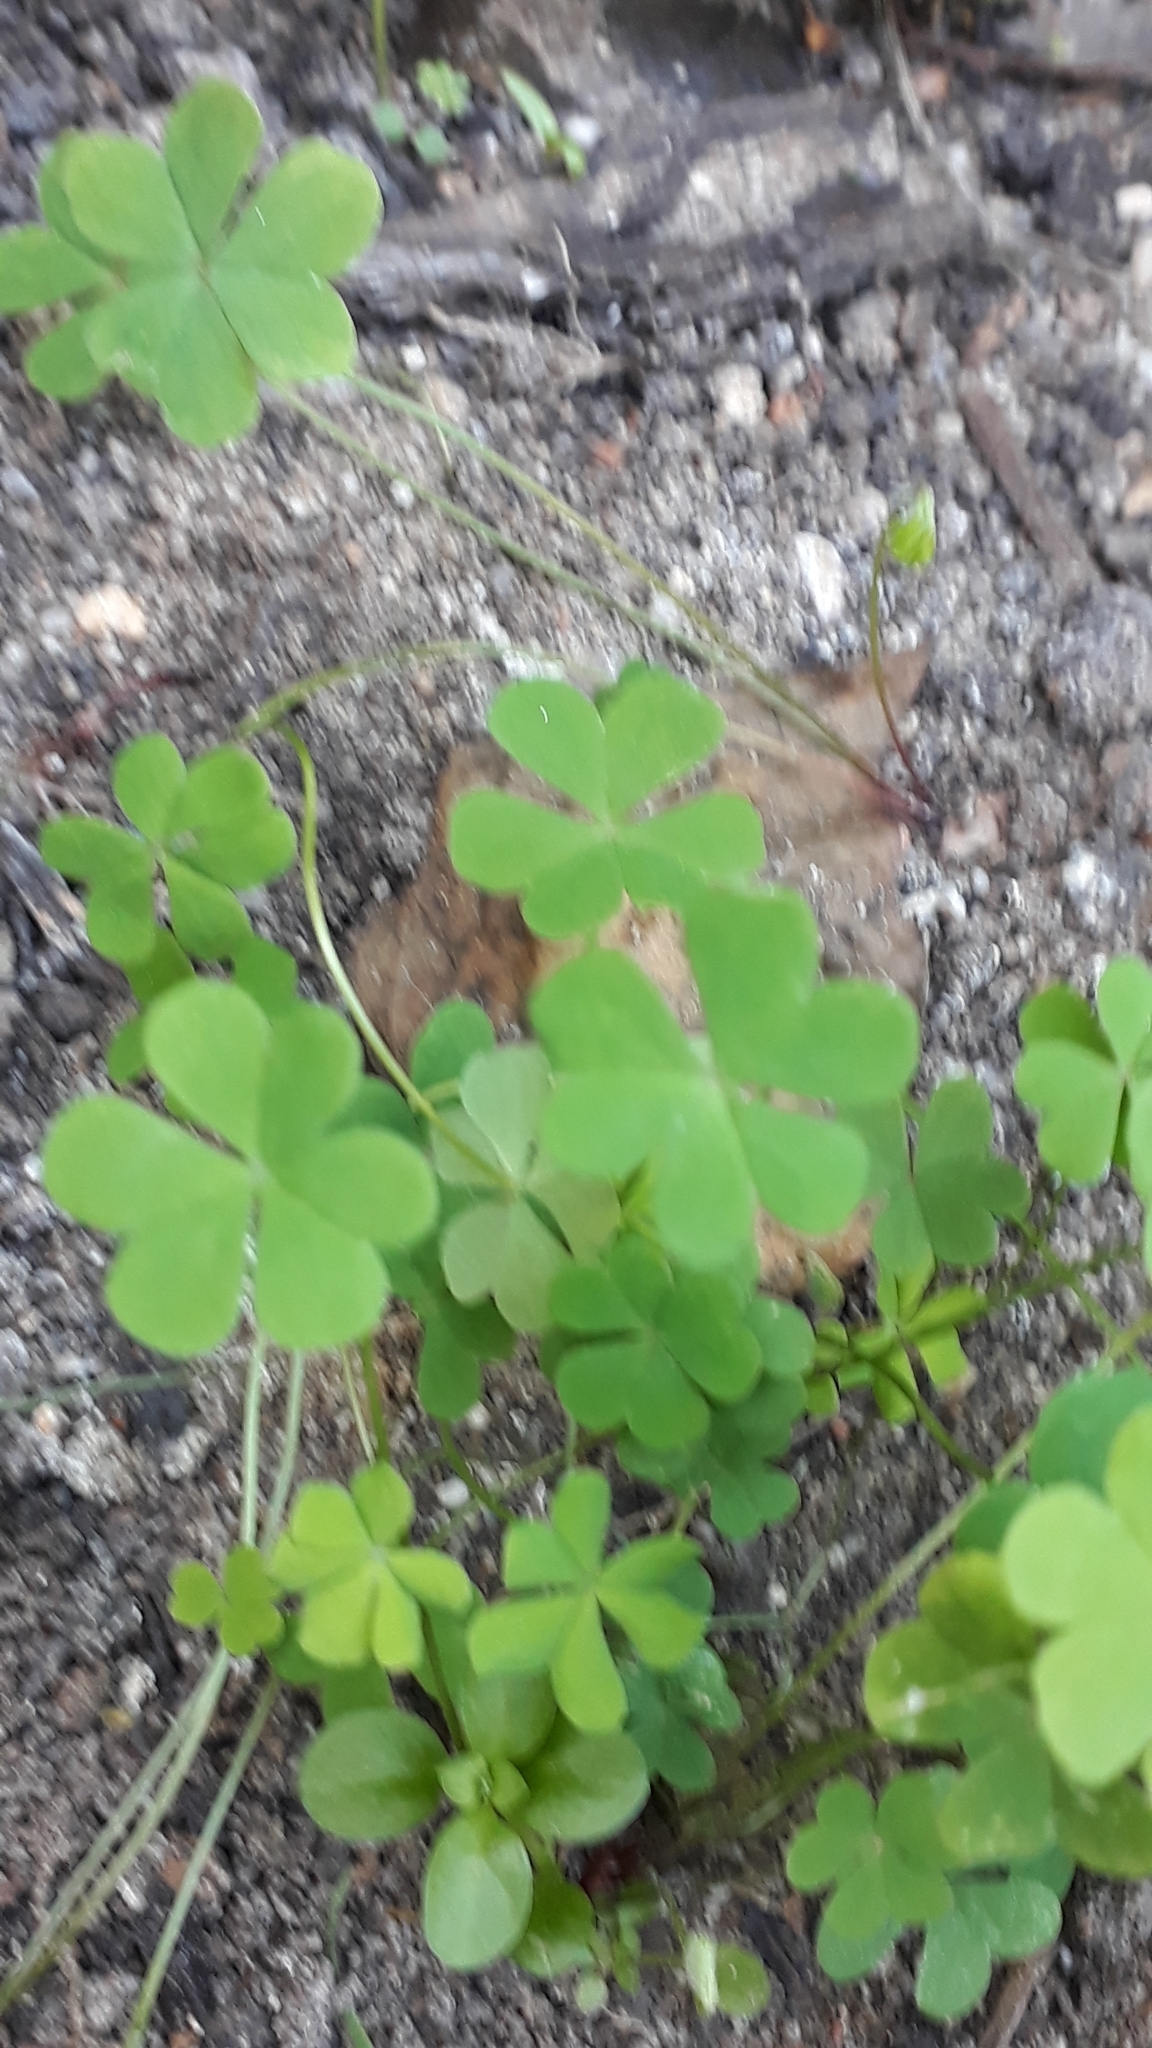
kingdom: Plantae
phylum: Tracheophyta
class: Magnoliopsida
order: Oxalidales
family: Oxalidaceae
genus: Oxalis
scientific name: Oxalis caprina
